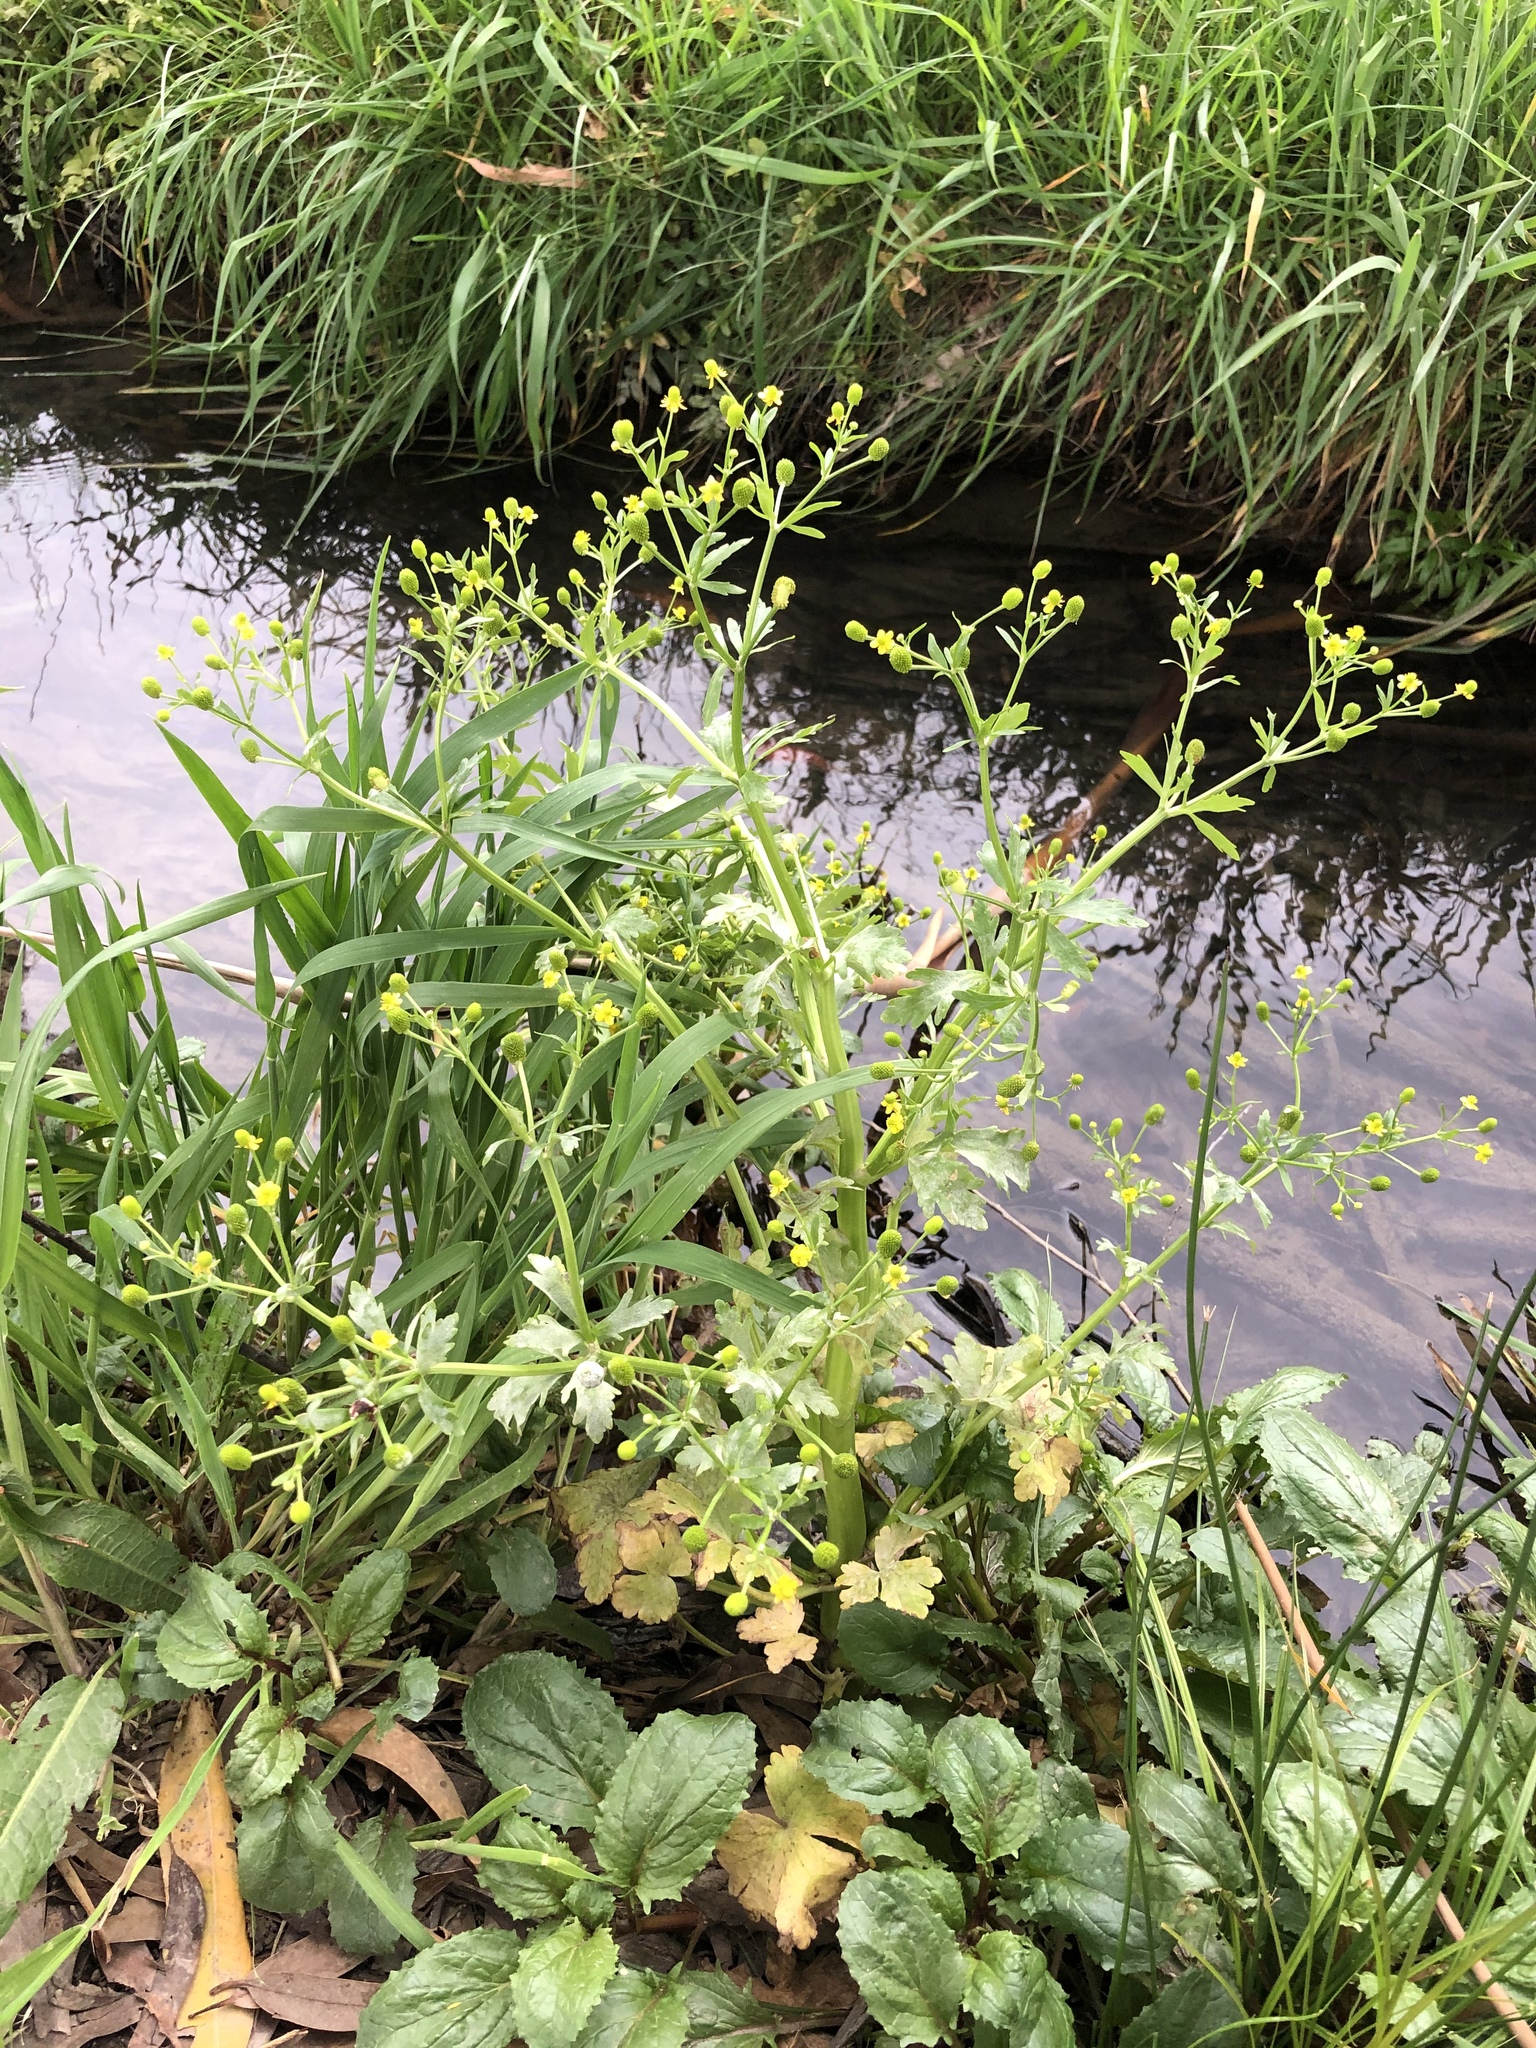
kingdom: Plantae
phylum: Tracheophyta
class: Magnoliopsida
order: Ranunculales
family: Ranunculaceae
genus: Ranunculus
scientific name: Ranunculus sceleratus
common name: Celery-leaved buttercup
